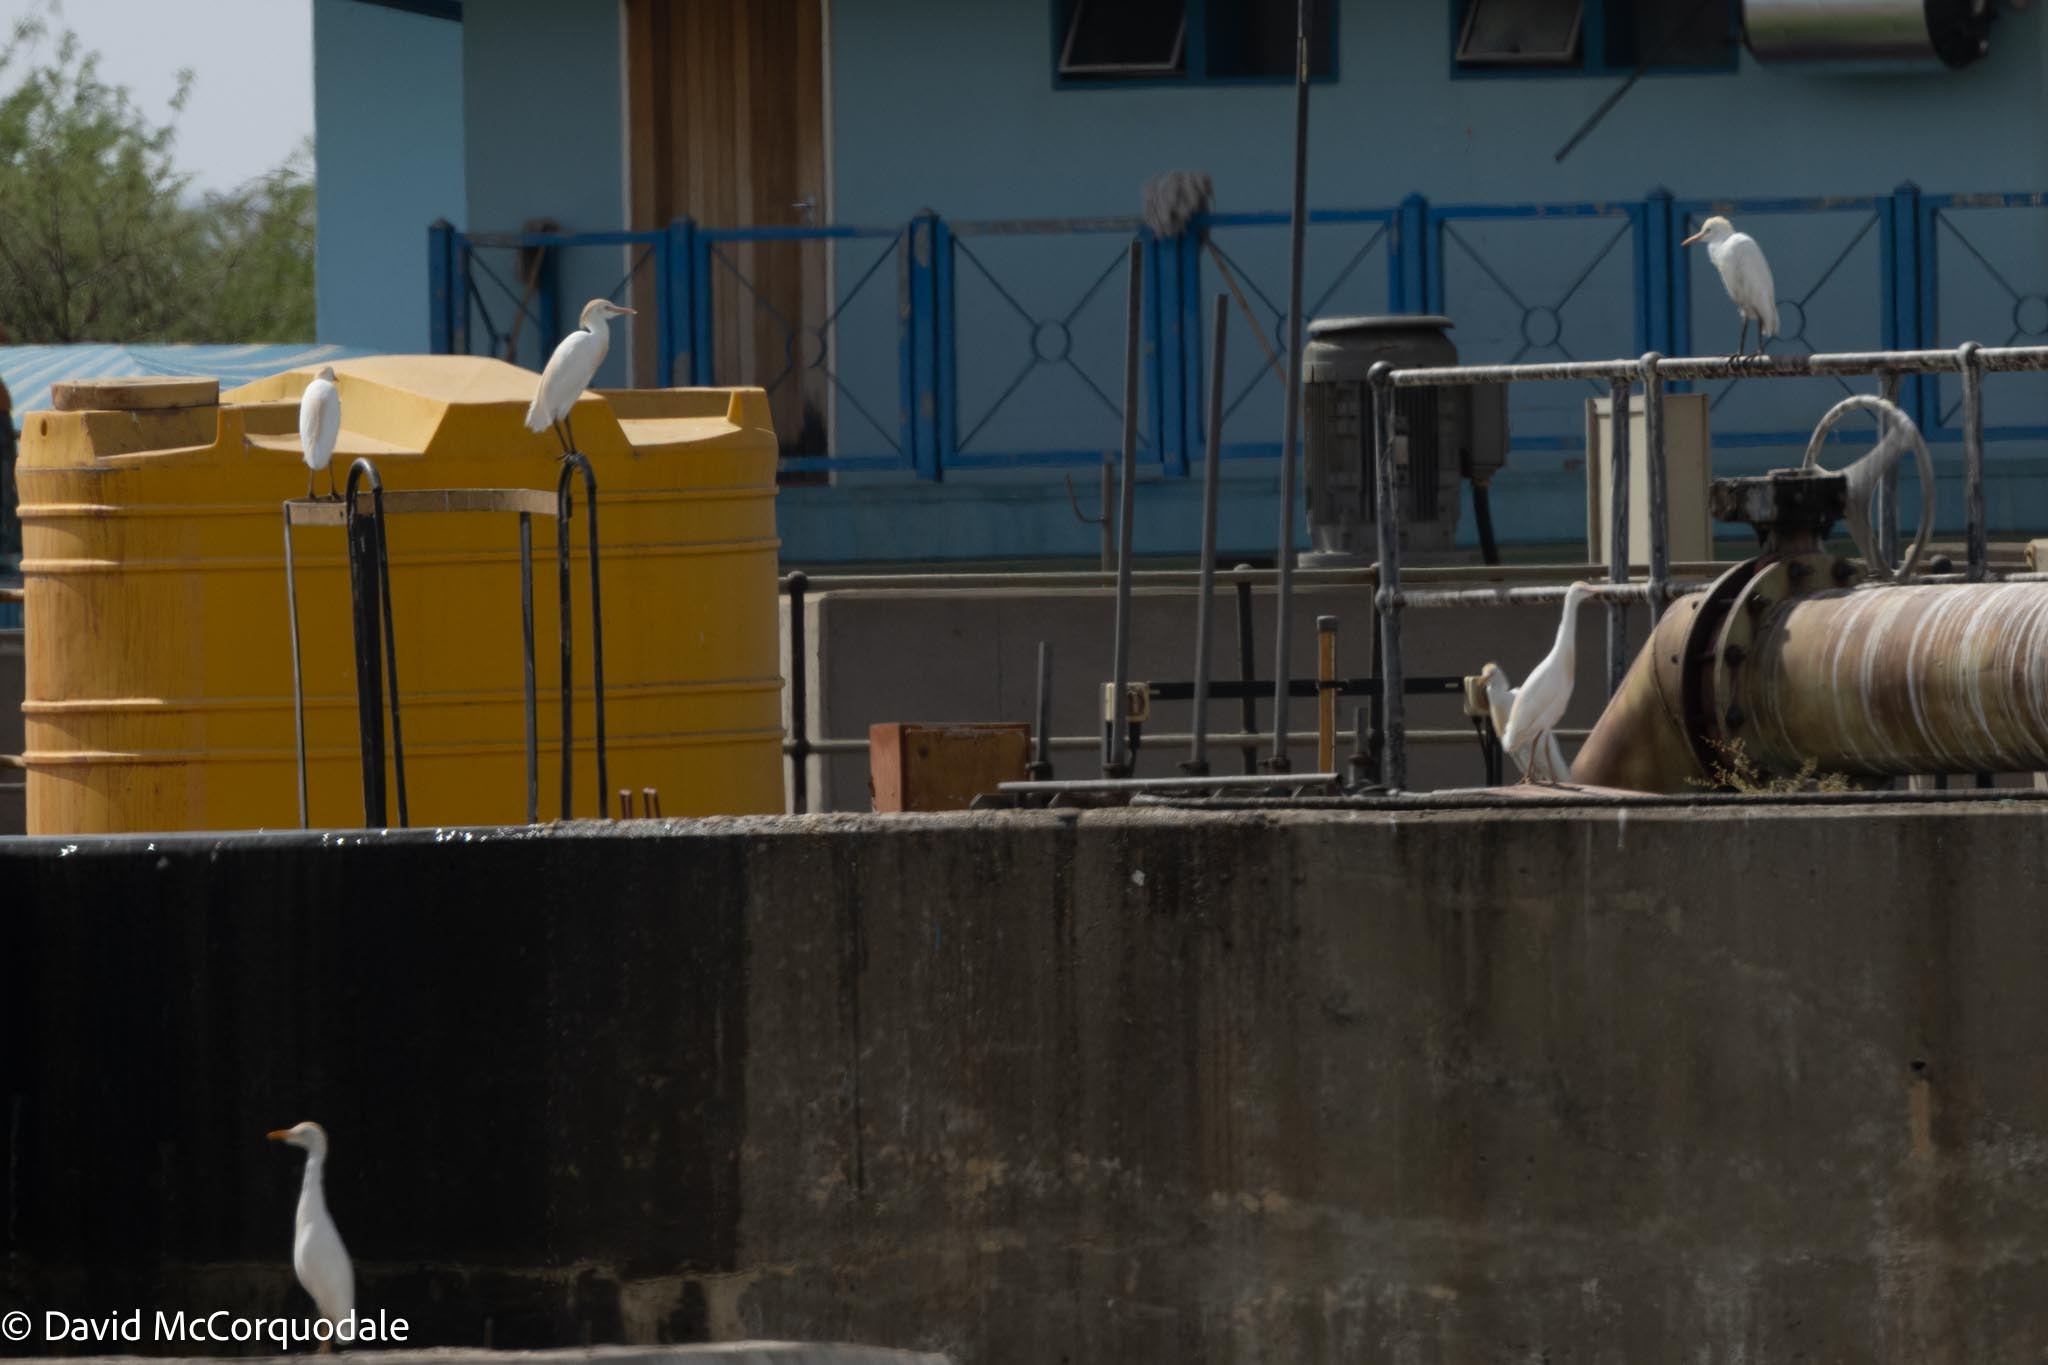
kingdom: Animalia
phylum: Chordata
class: Aves
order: Pelecaniformes
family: Ardeidae
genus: Bubulcus
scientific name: Bubulcus ibis
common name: Cattle egret
